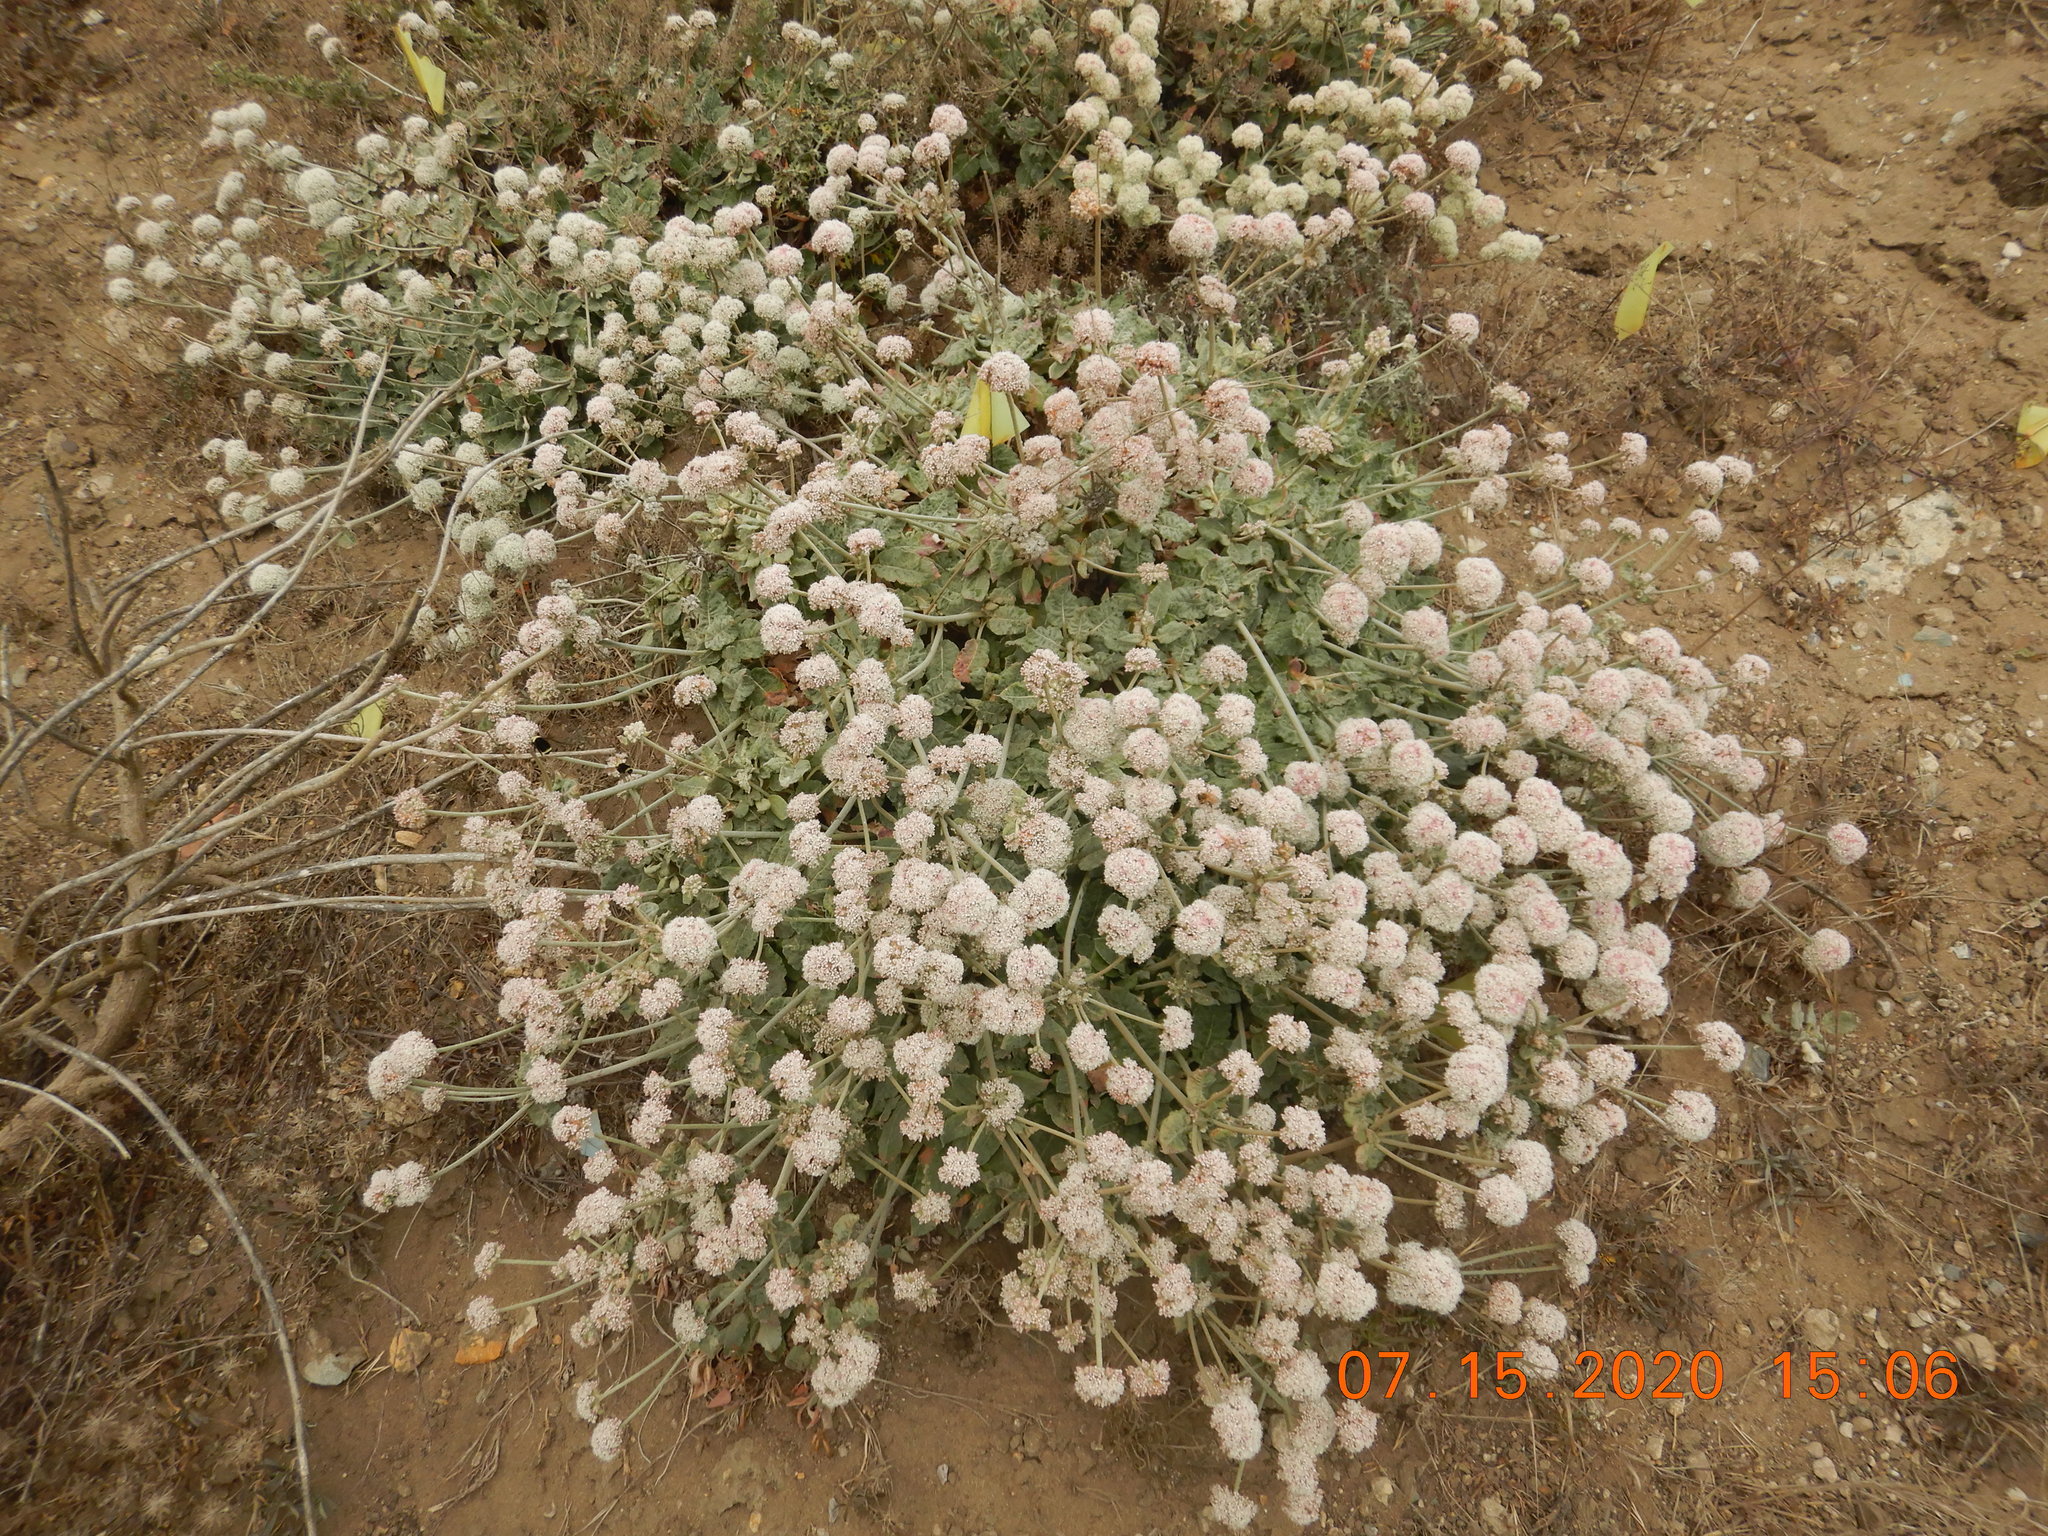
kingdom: Plantae
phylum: Tracheophyta
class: Magnoliopsida
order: Caryophyllales
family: Polygonaceae
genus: Eriogonum
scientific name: Eriogonum latifolium
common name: Seaside wild buckwheat
